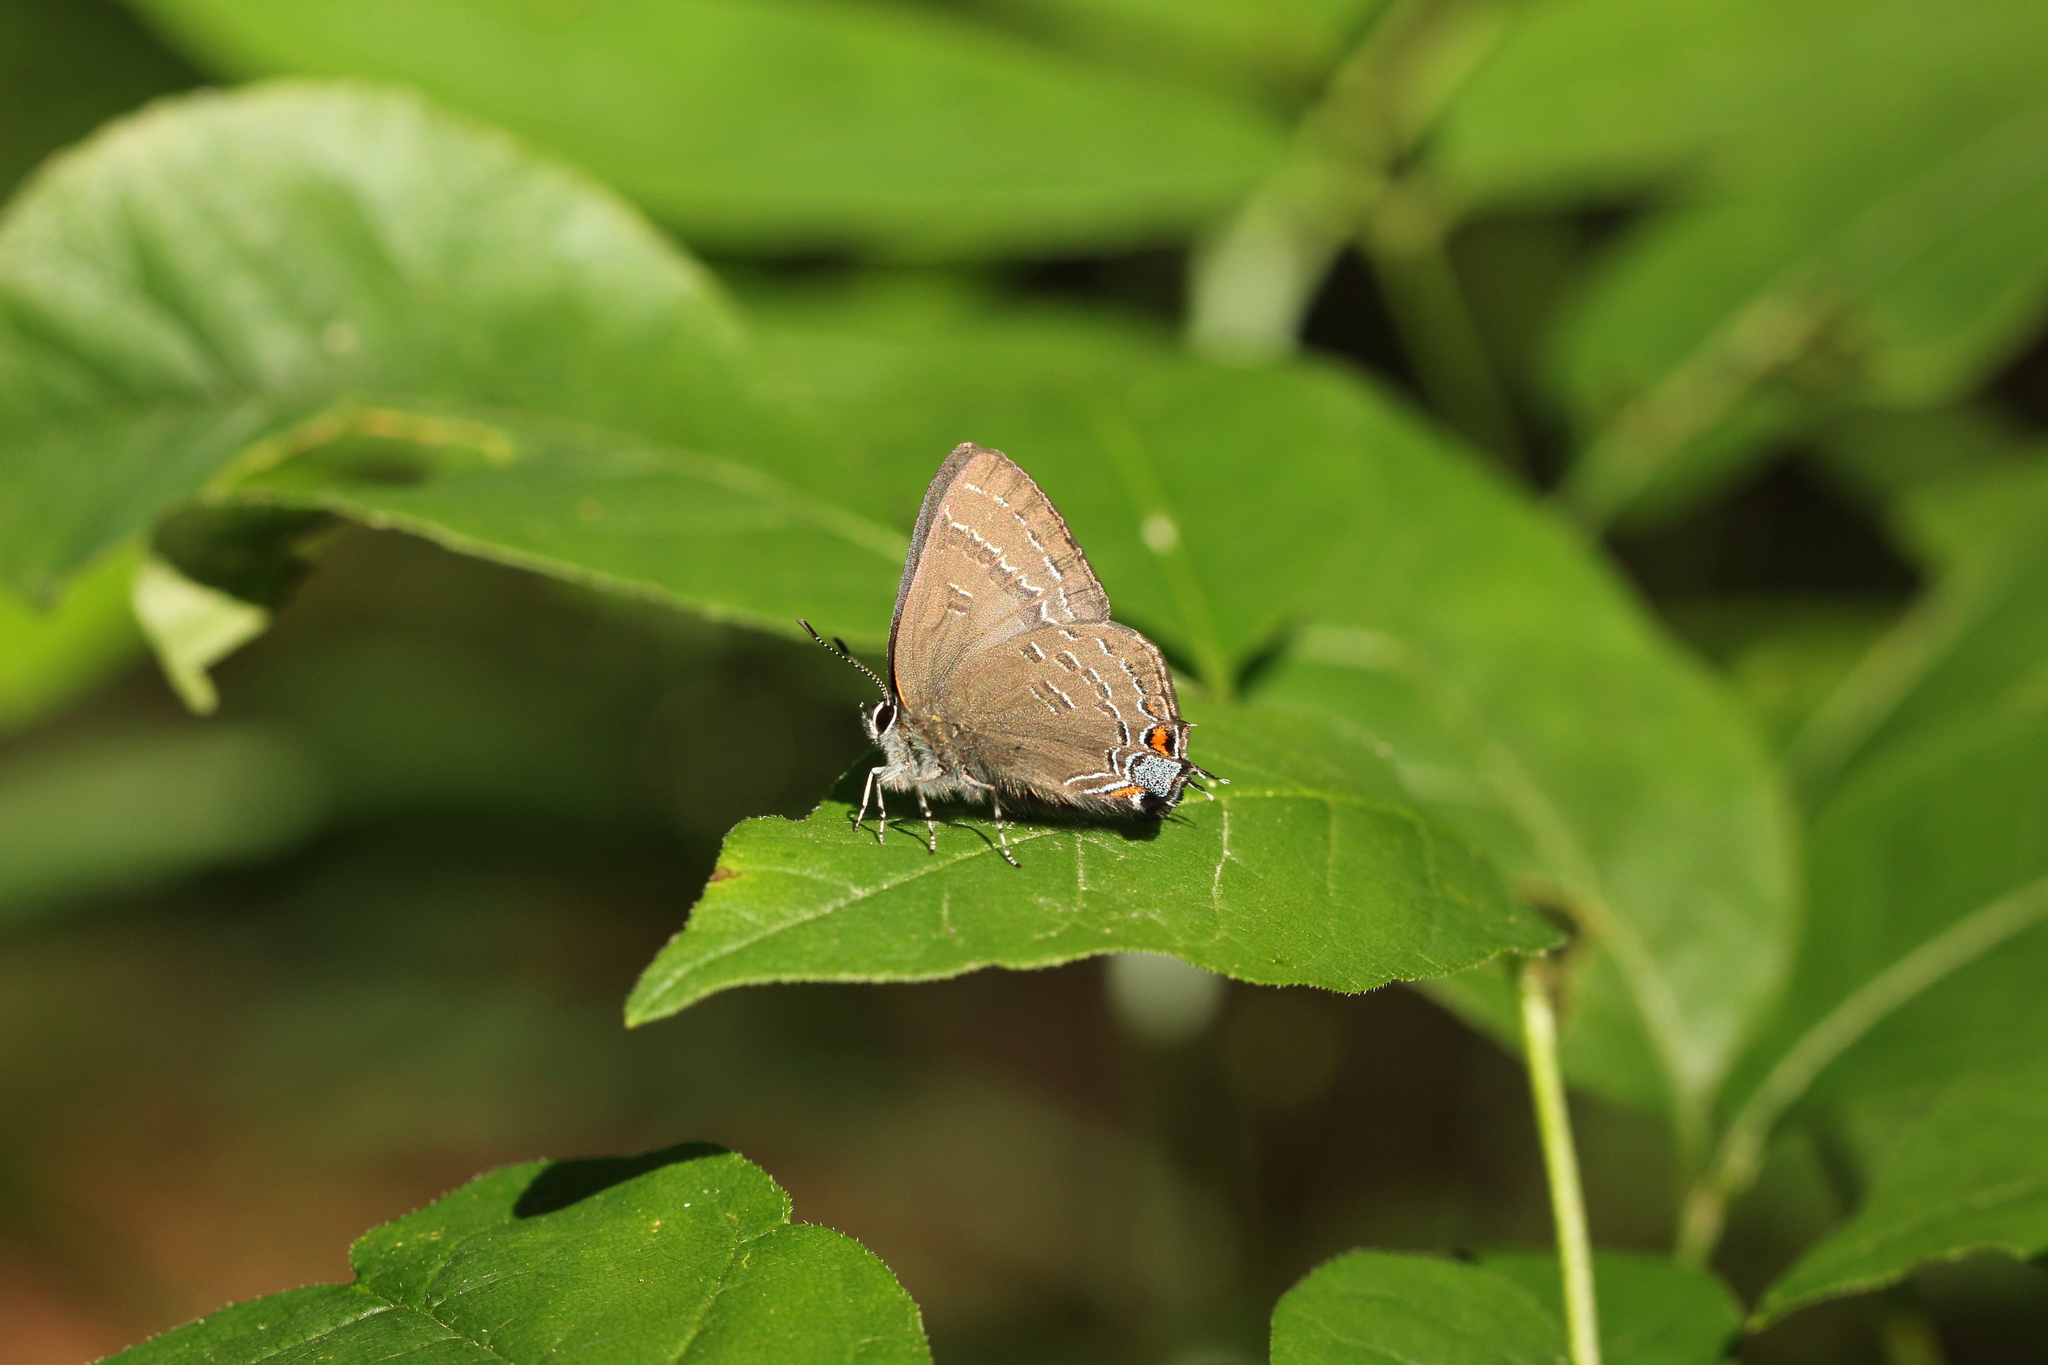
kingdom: Animalia
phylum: Arthropoda
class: Insecta
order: Lepidoptera
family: Lycaenidae
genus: Satyrium
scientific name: Satyrium calanus
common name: Banded hairstreak
